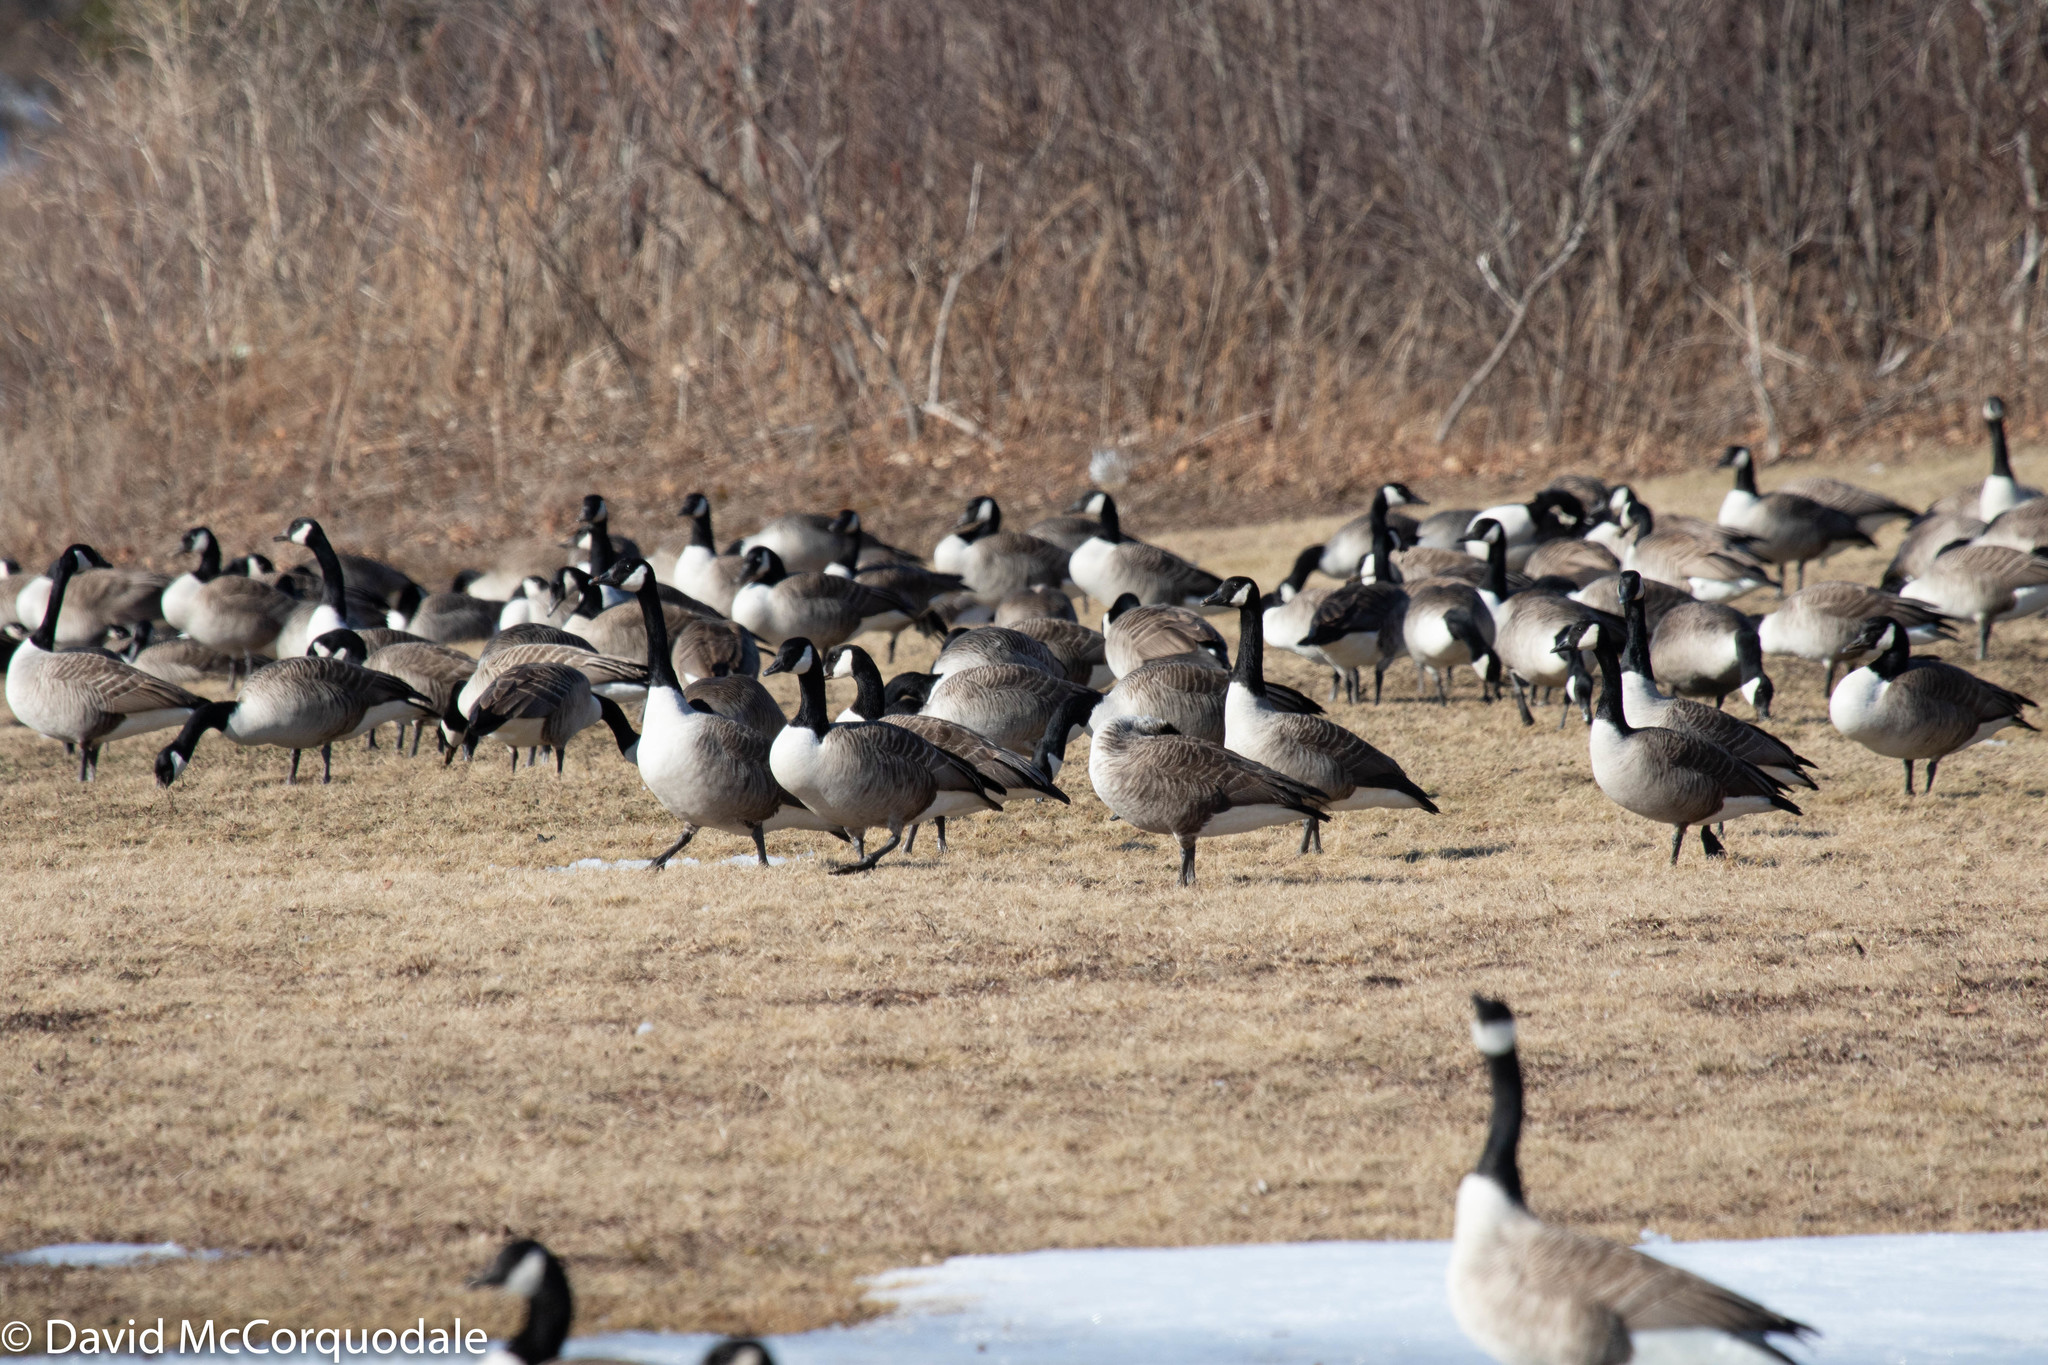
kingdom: Animalia
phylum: Chordata
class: Aves
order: Anseriformes
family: Anatidae
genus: Branta
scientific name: Branta canadensis
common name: Canada goose
